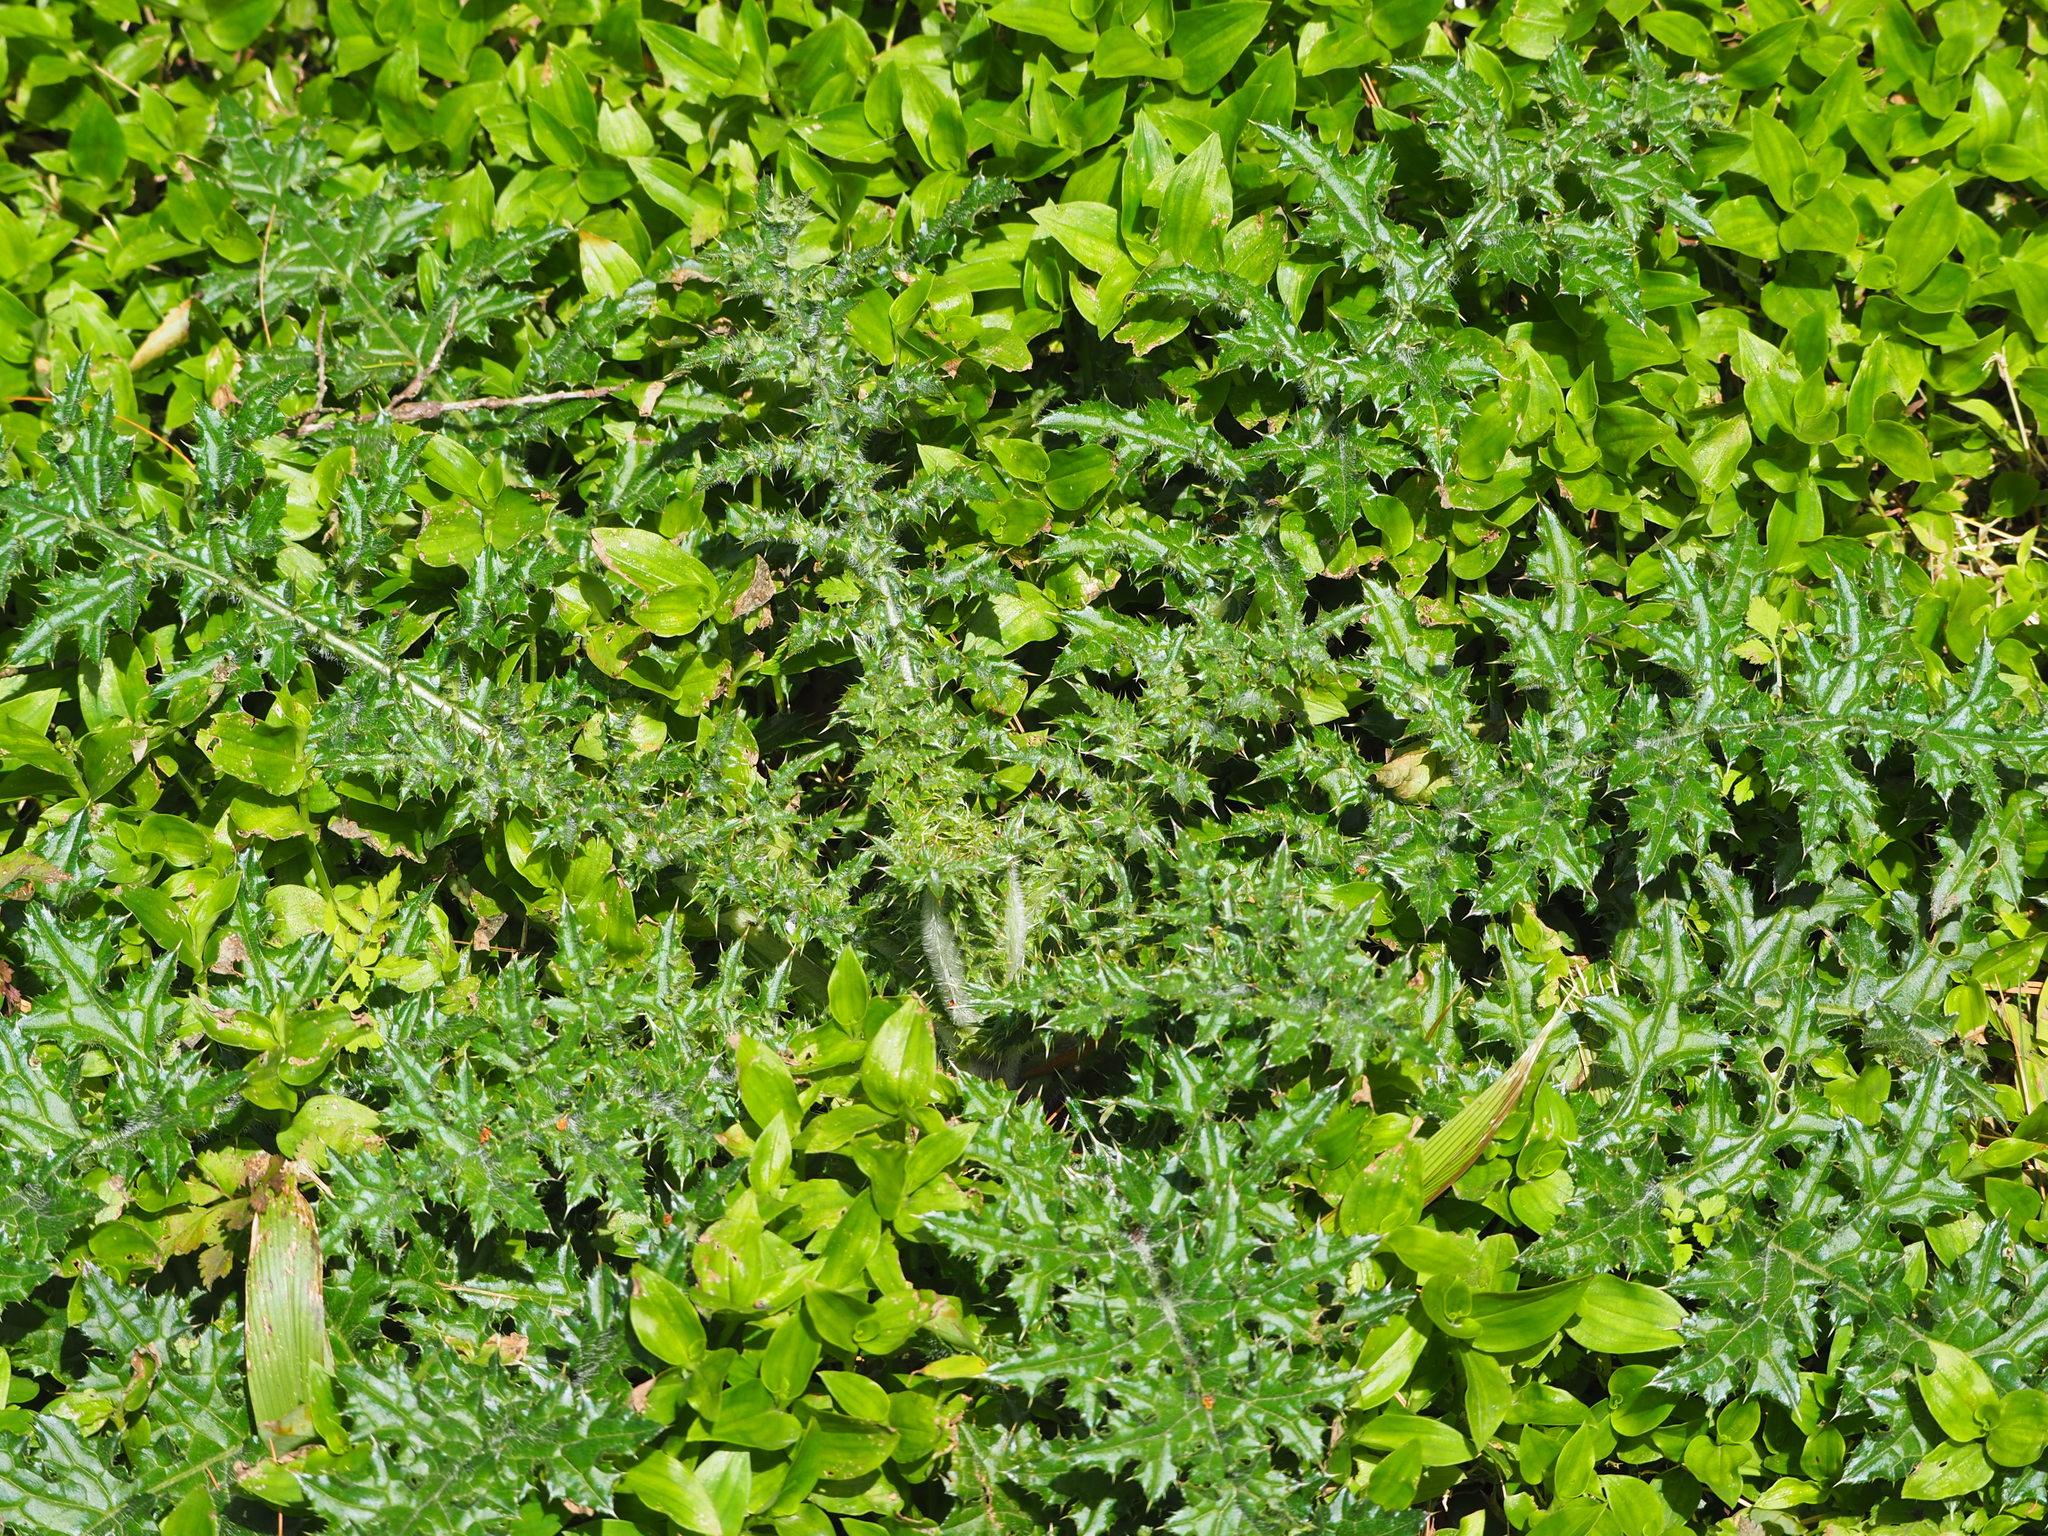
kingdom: Plantae
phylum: Tracheophyta
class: Magnoliopsida
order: Asterales
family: Asteraceae
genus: Cirsium
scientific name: Cirsium japonicum
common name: Japanese thistle
